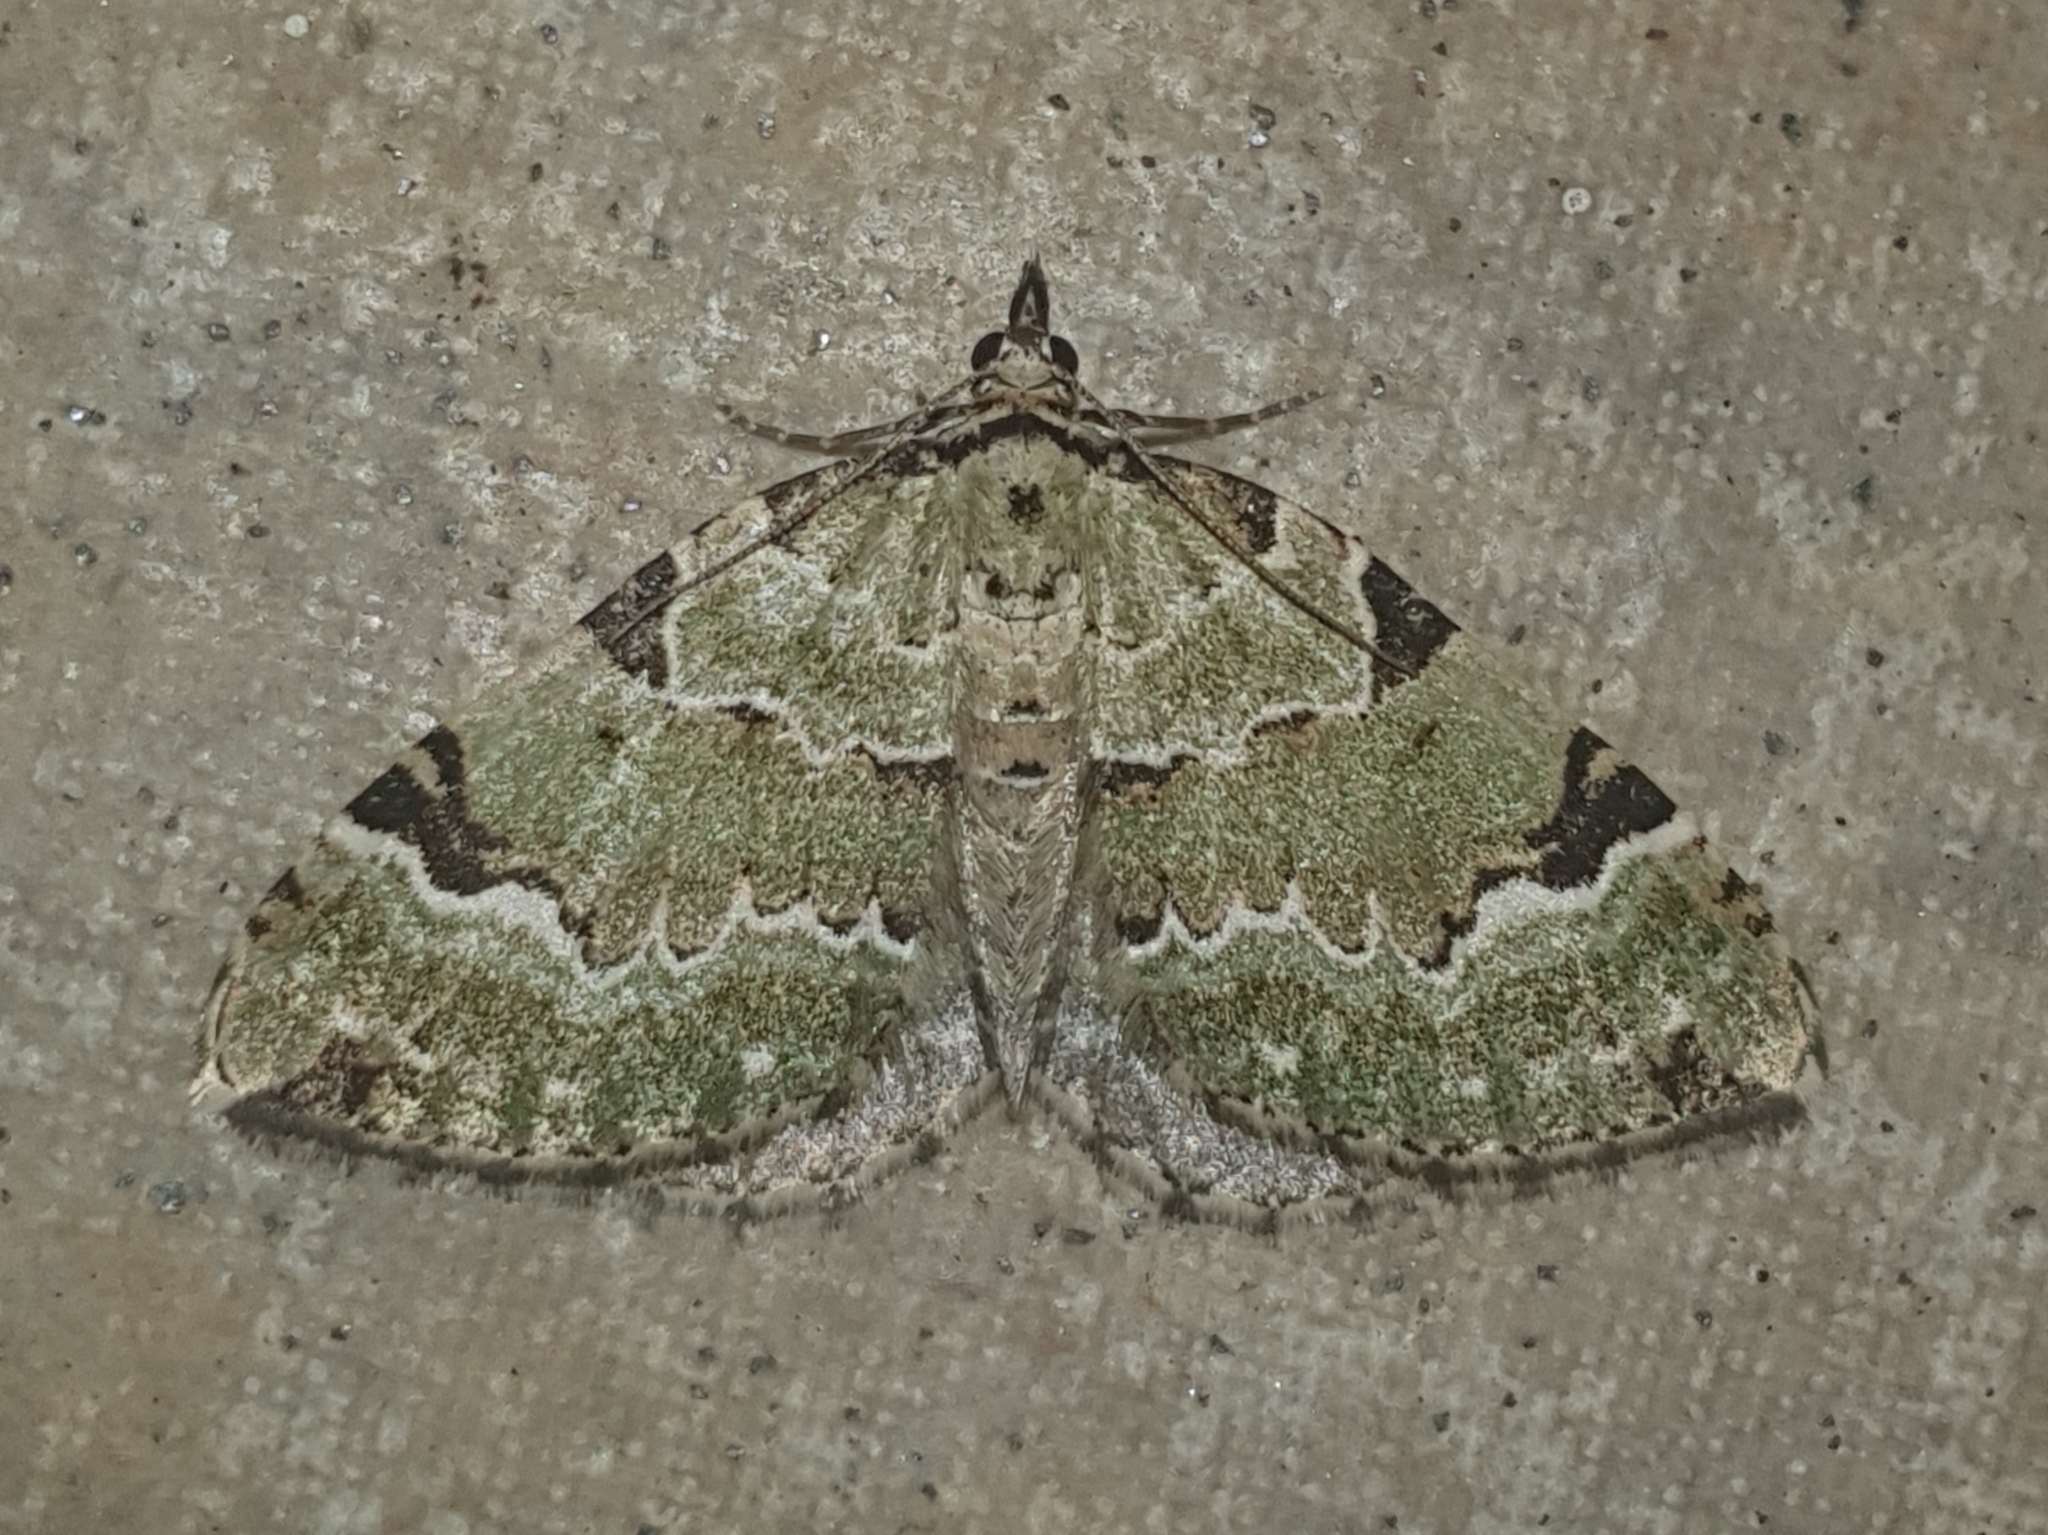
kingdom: Animalia
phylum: Arthropoda
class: Insecta
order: Lepidoptera
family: Geometridae
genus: Colostygia
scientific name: Colostygia pectinataria
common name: Green carpet
